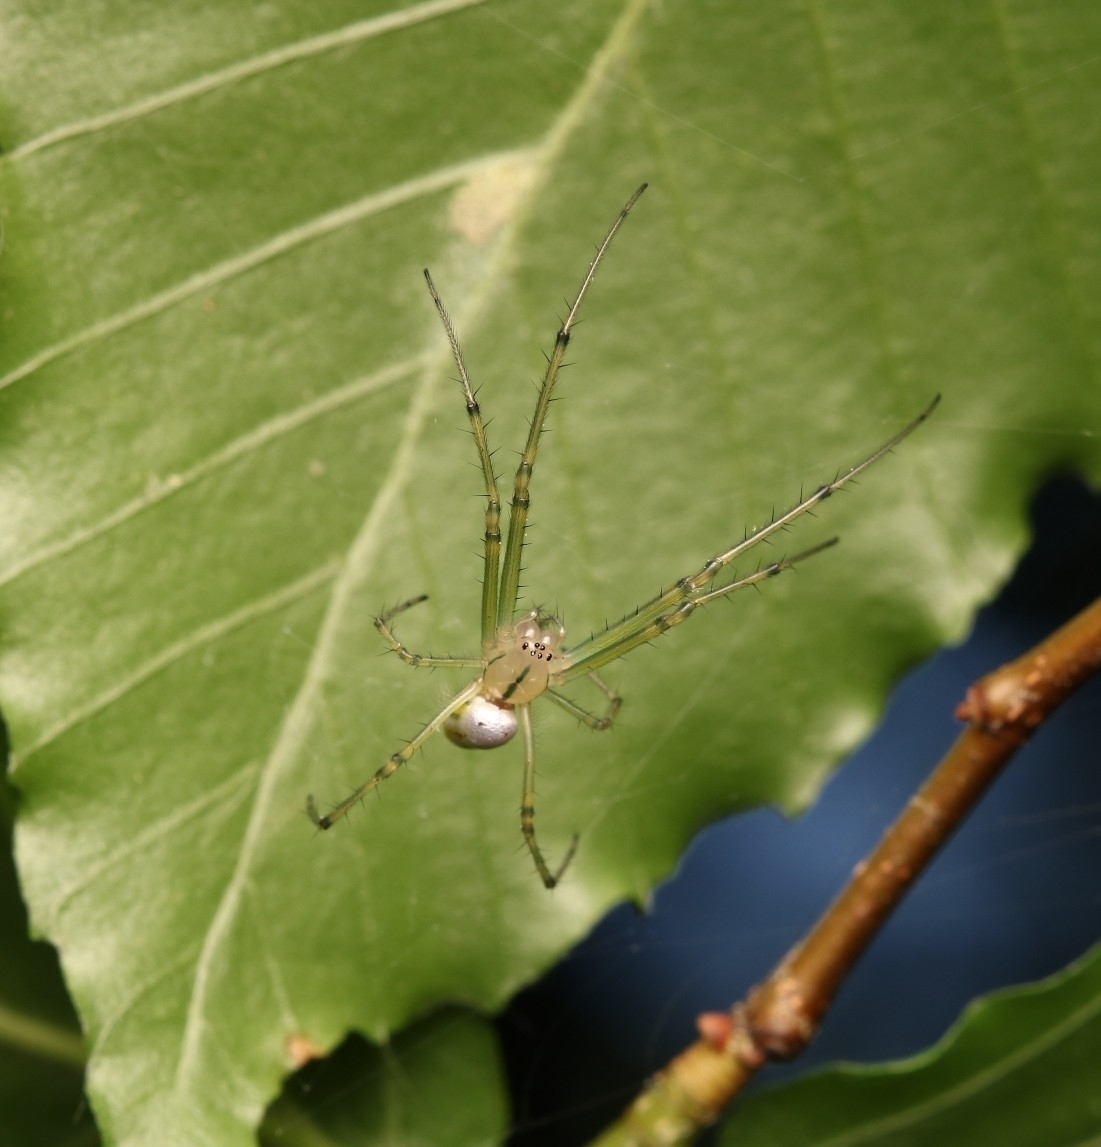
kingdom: Animalia
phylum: Arthropoda
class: Arachnida
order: Araneae
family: Tetragnathidae
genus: Leucauge
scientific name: Leucauge venusta
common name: Longjawed orb weavers
